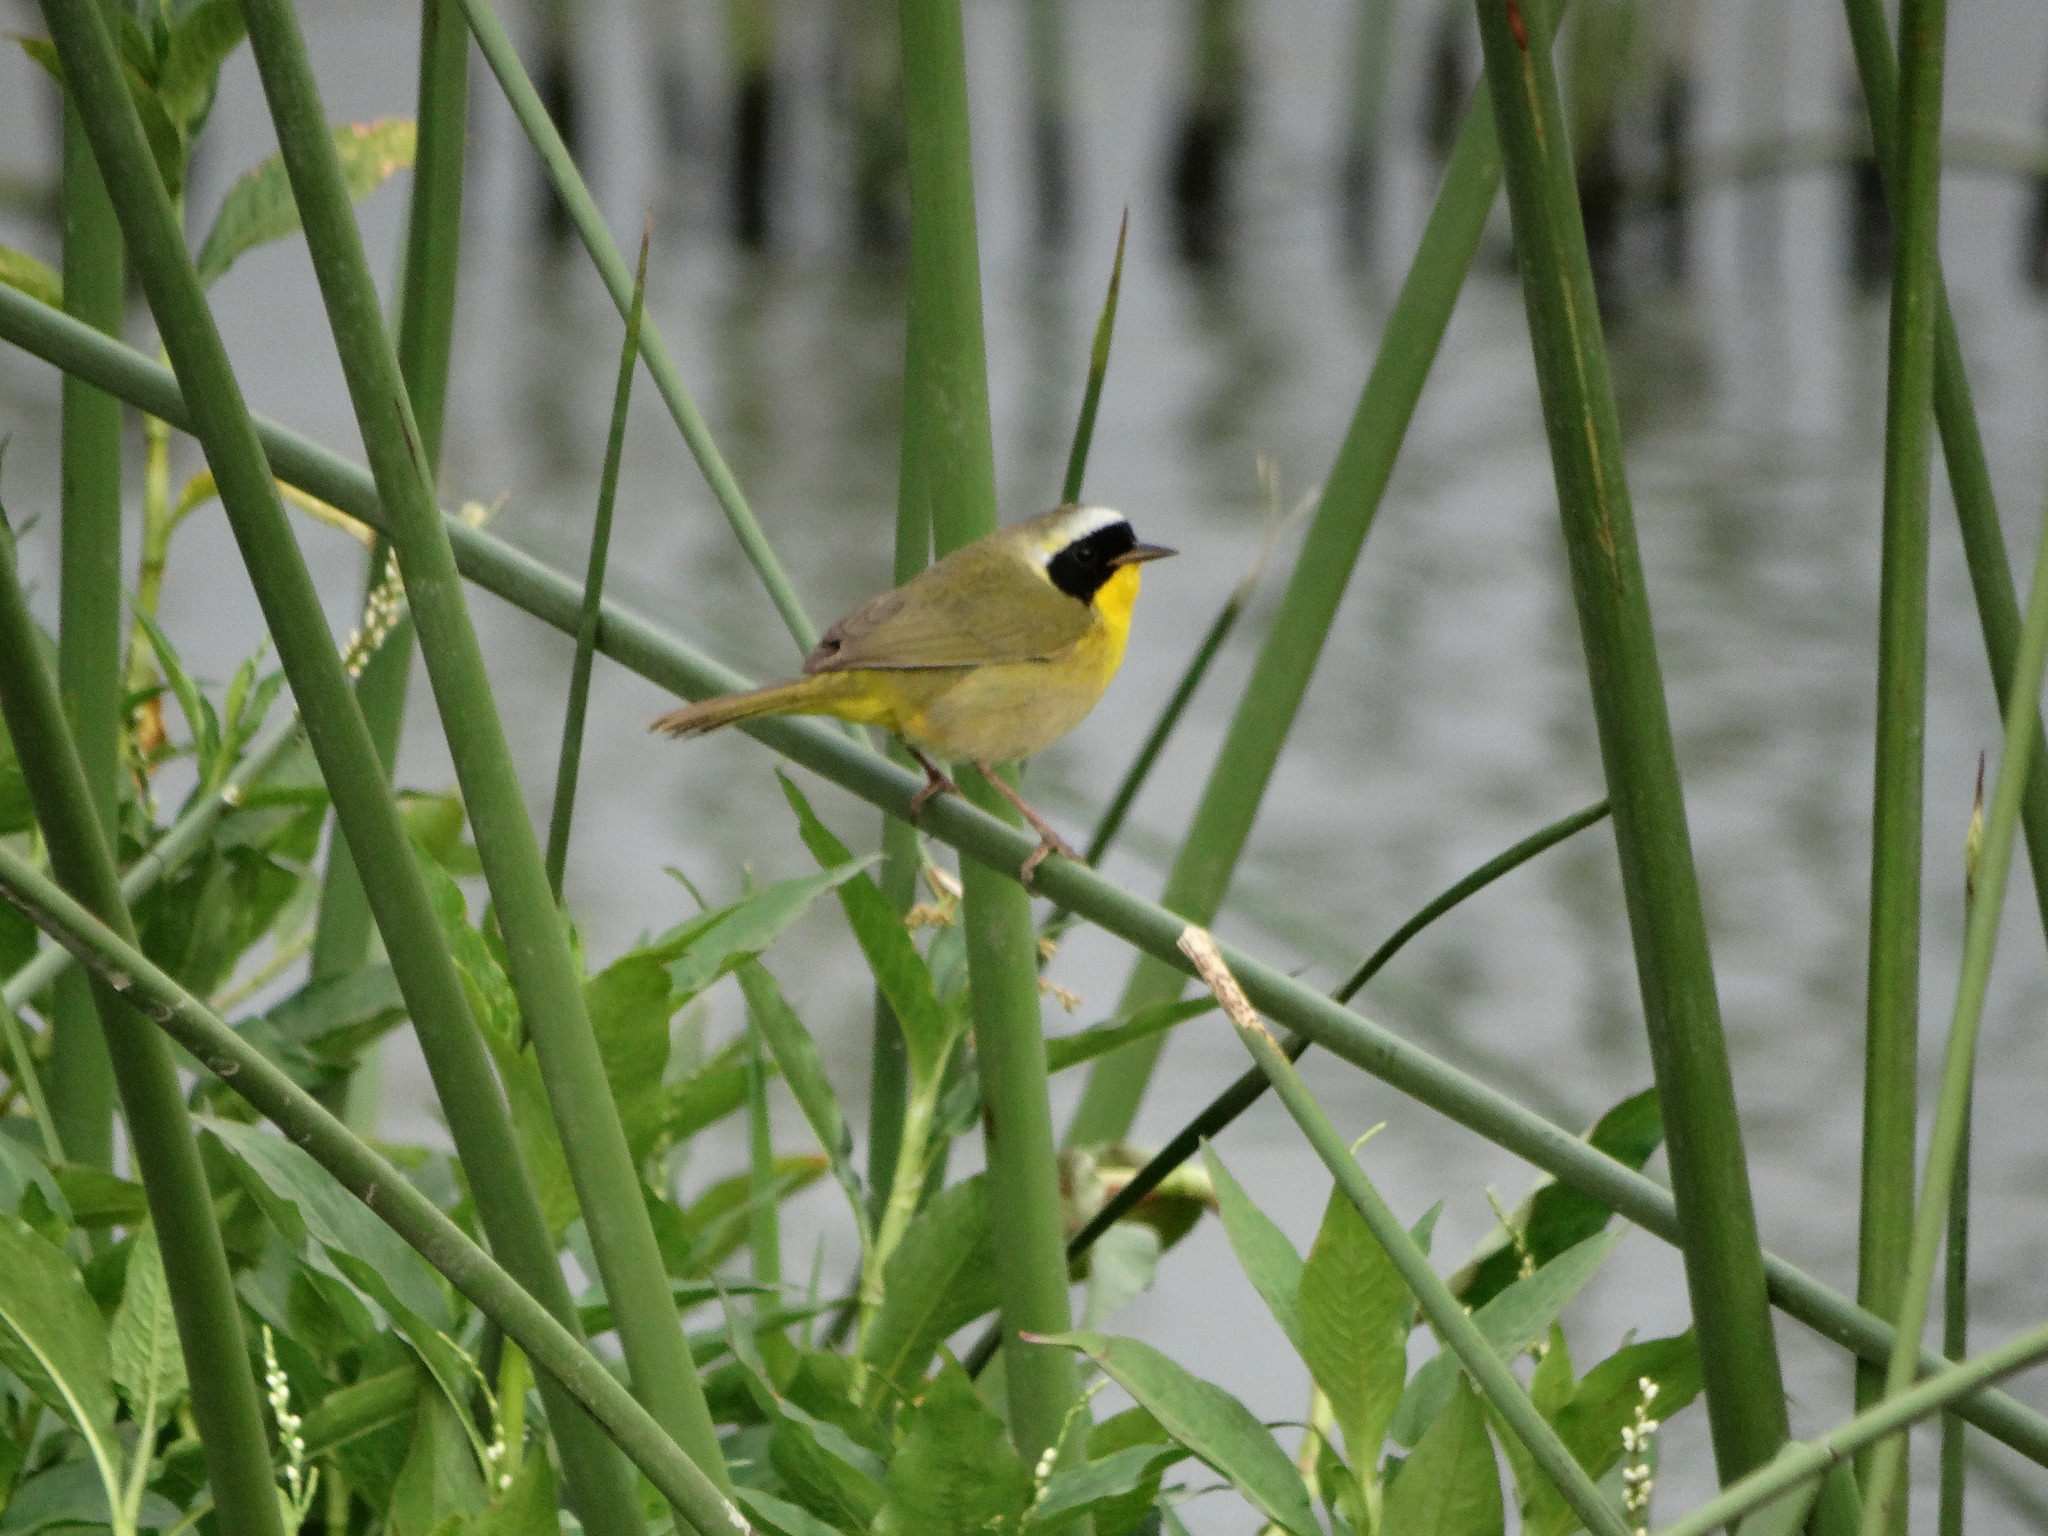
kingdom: Animalia
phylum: Chordata
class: Aves
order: Passeriformes
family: Parulidae
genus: Geothlypis
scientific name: Geothlypis trichas
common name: Common yellowthroat
